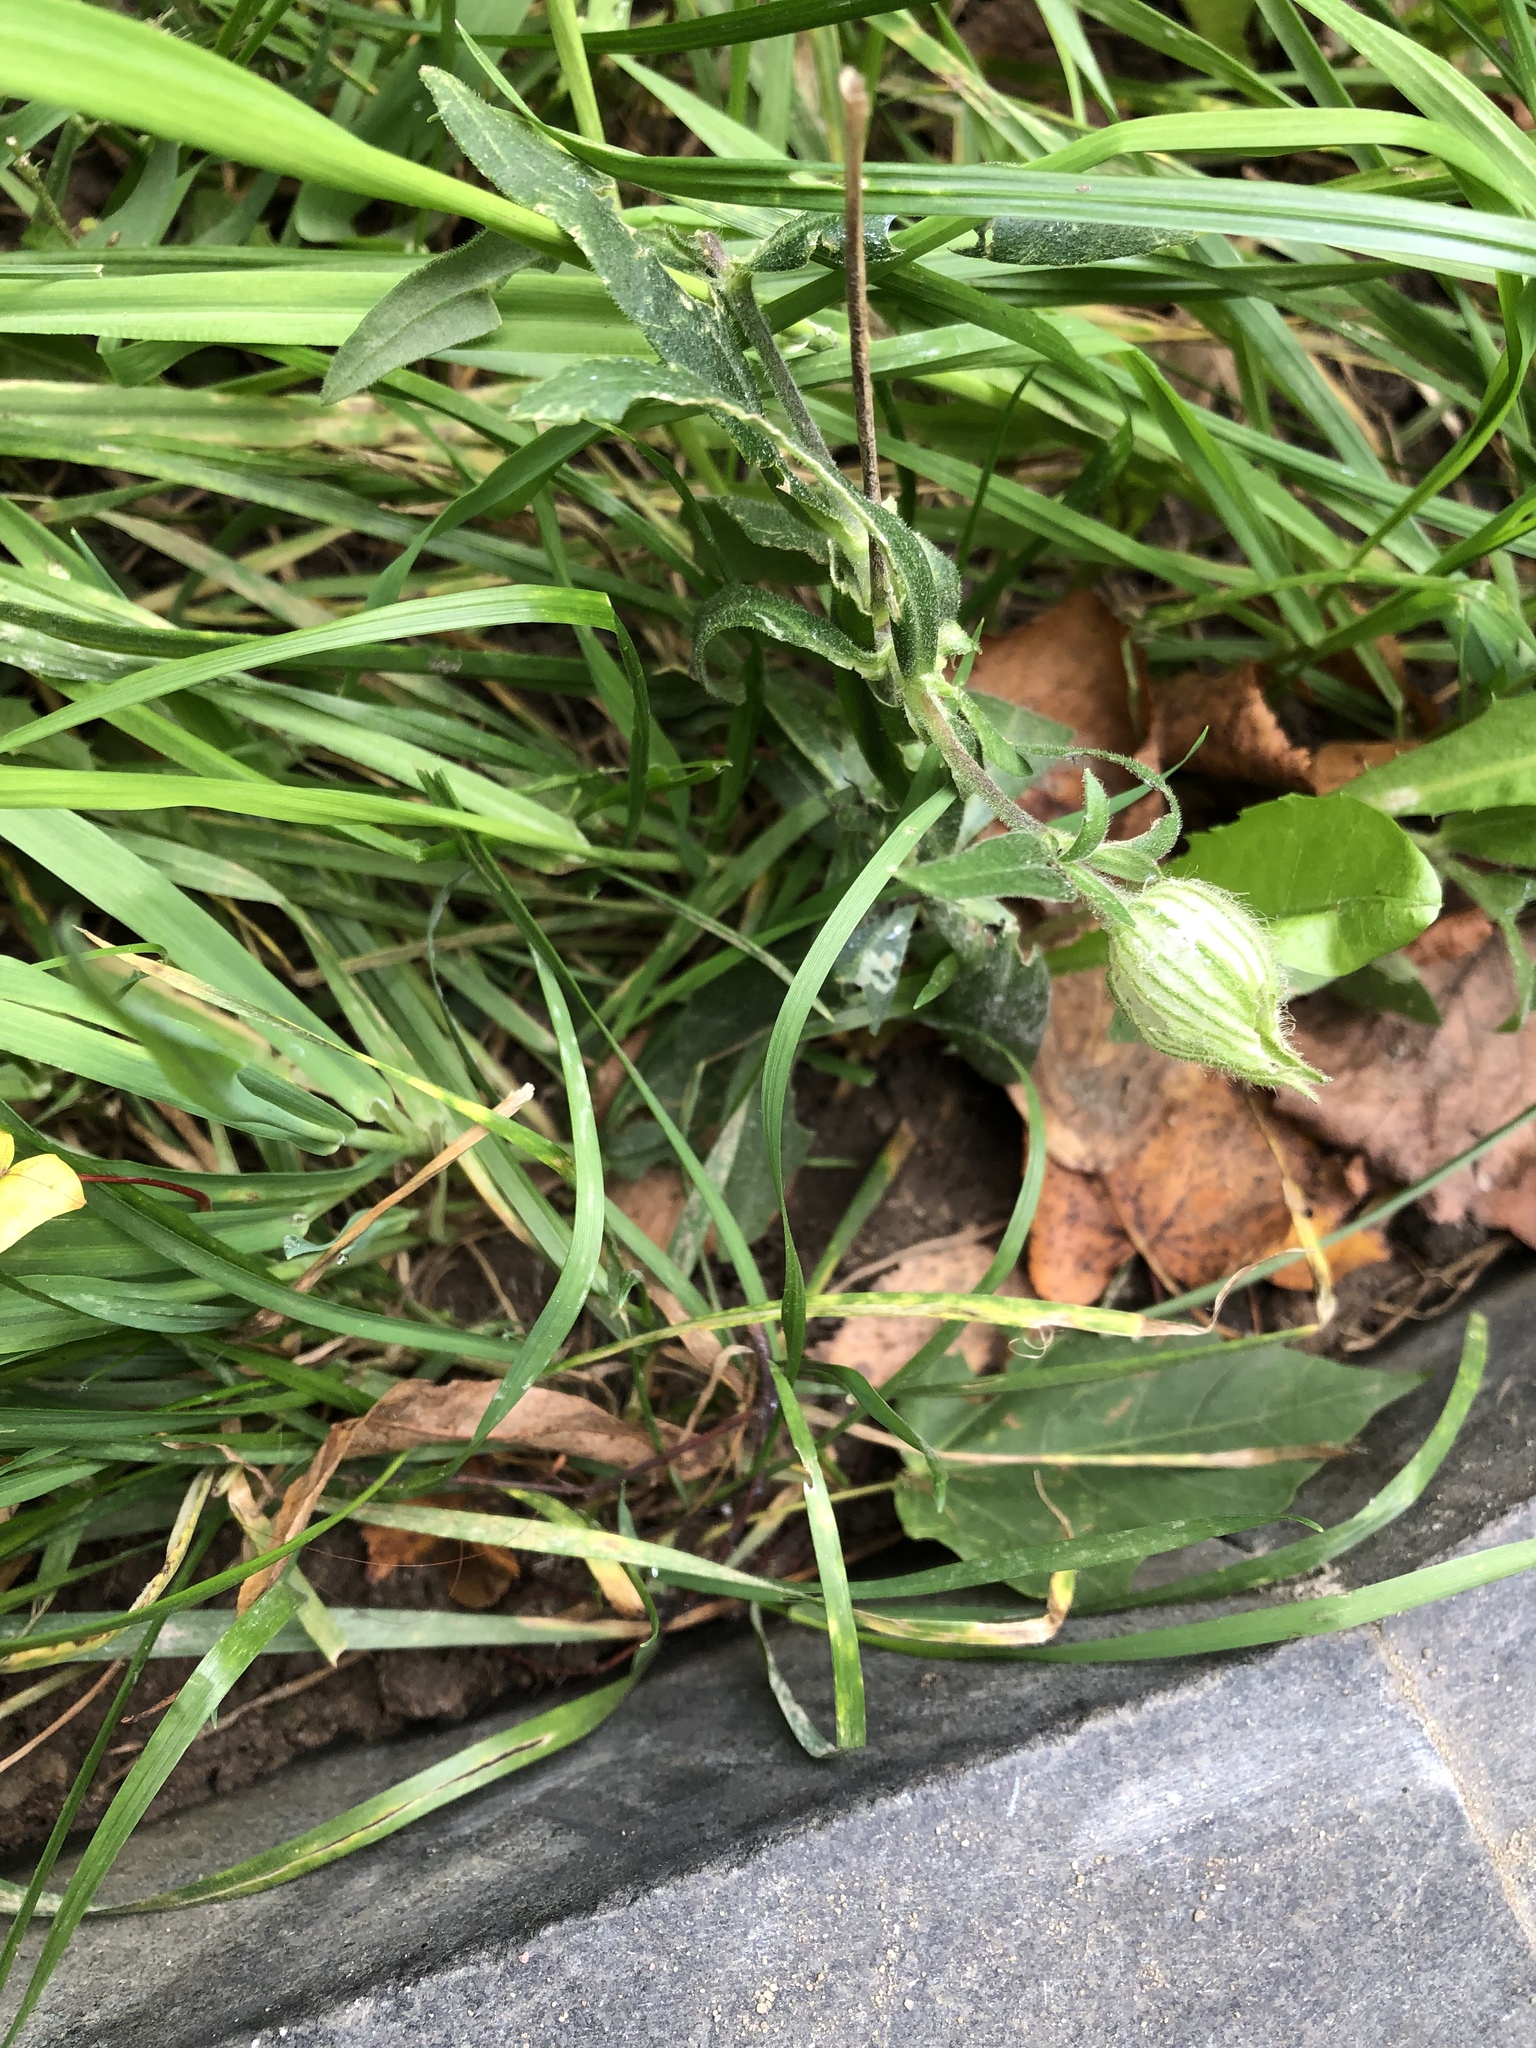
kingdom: Plantae
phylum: Tracheophyta
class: Magnoliopsida
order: Caryophyllales
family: Caryophyllaceae
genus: Silene
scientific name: Silene latifolia
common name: White campion
